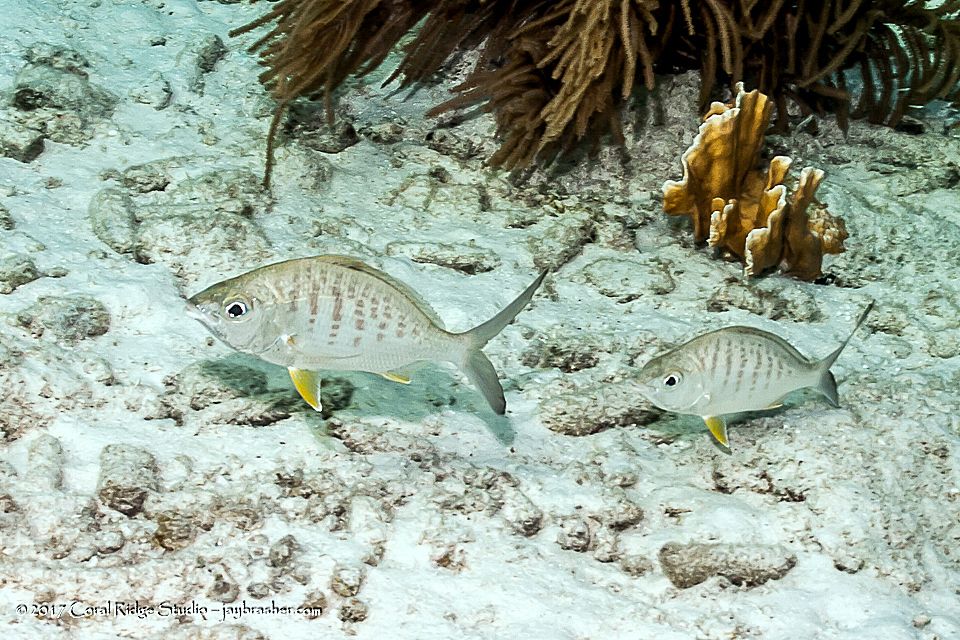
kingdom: Animalia
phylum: Chordata
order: Perciformes
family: Gerreidae
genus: Gerres
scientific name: Gerres cinereus
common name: Hedow
